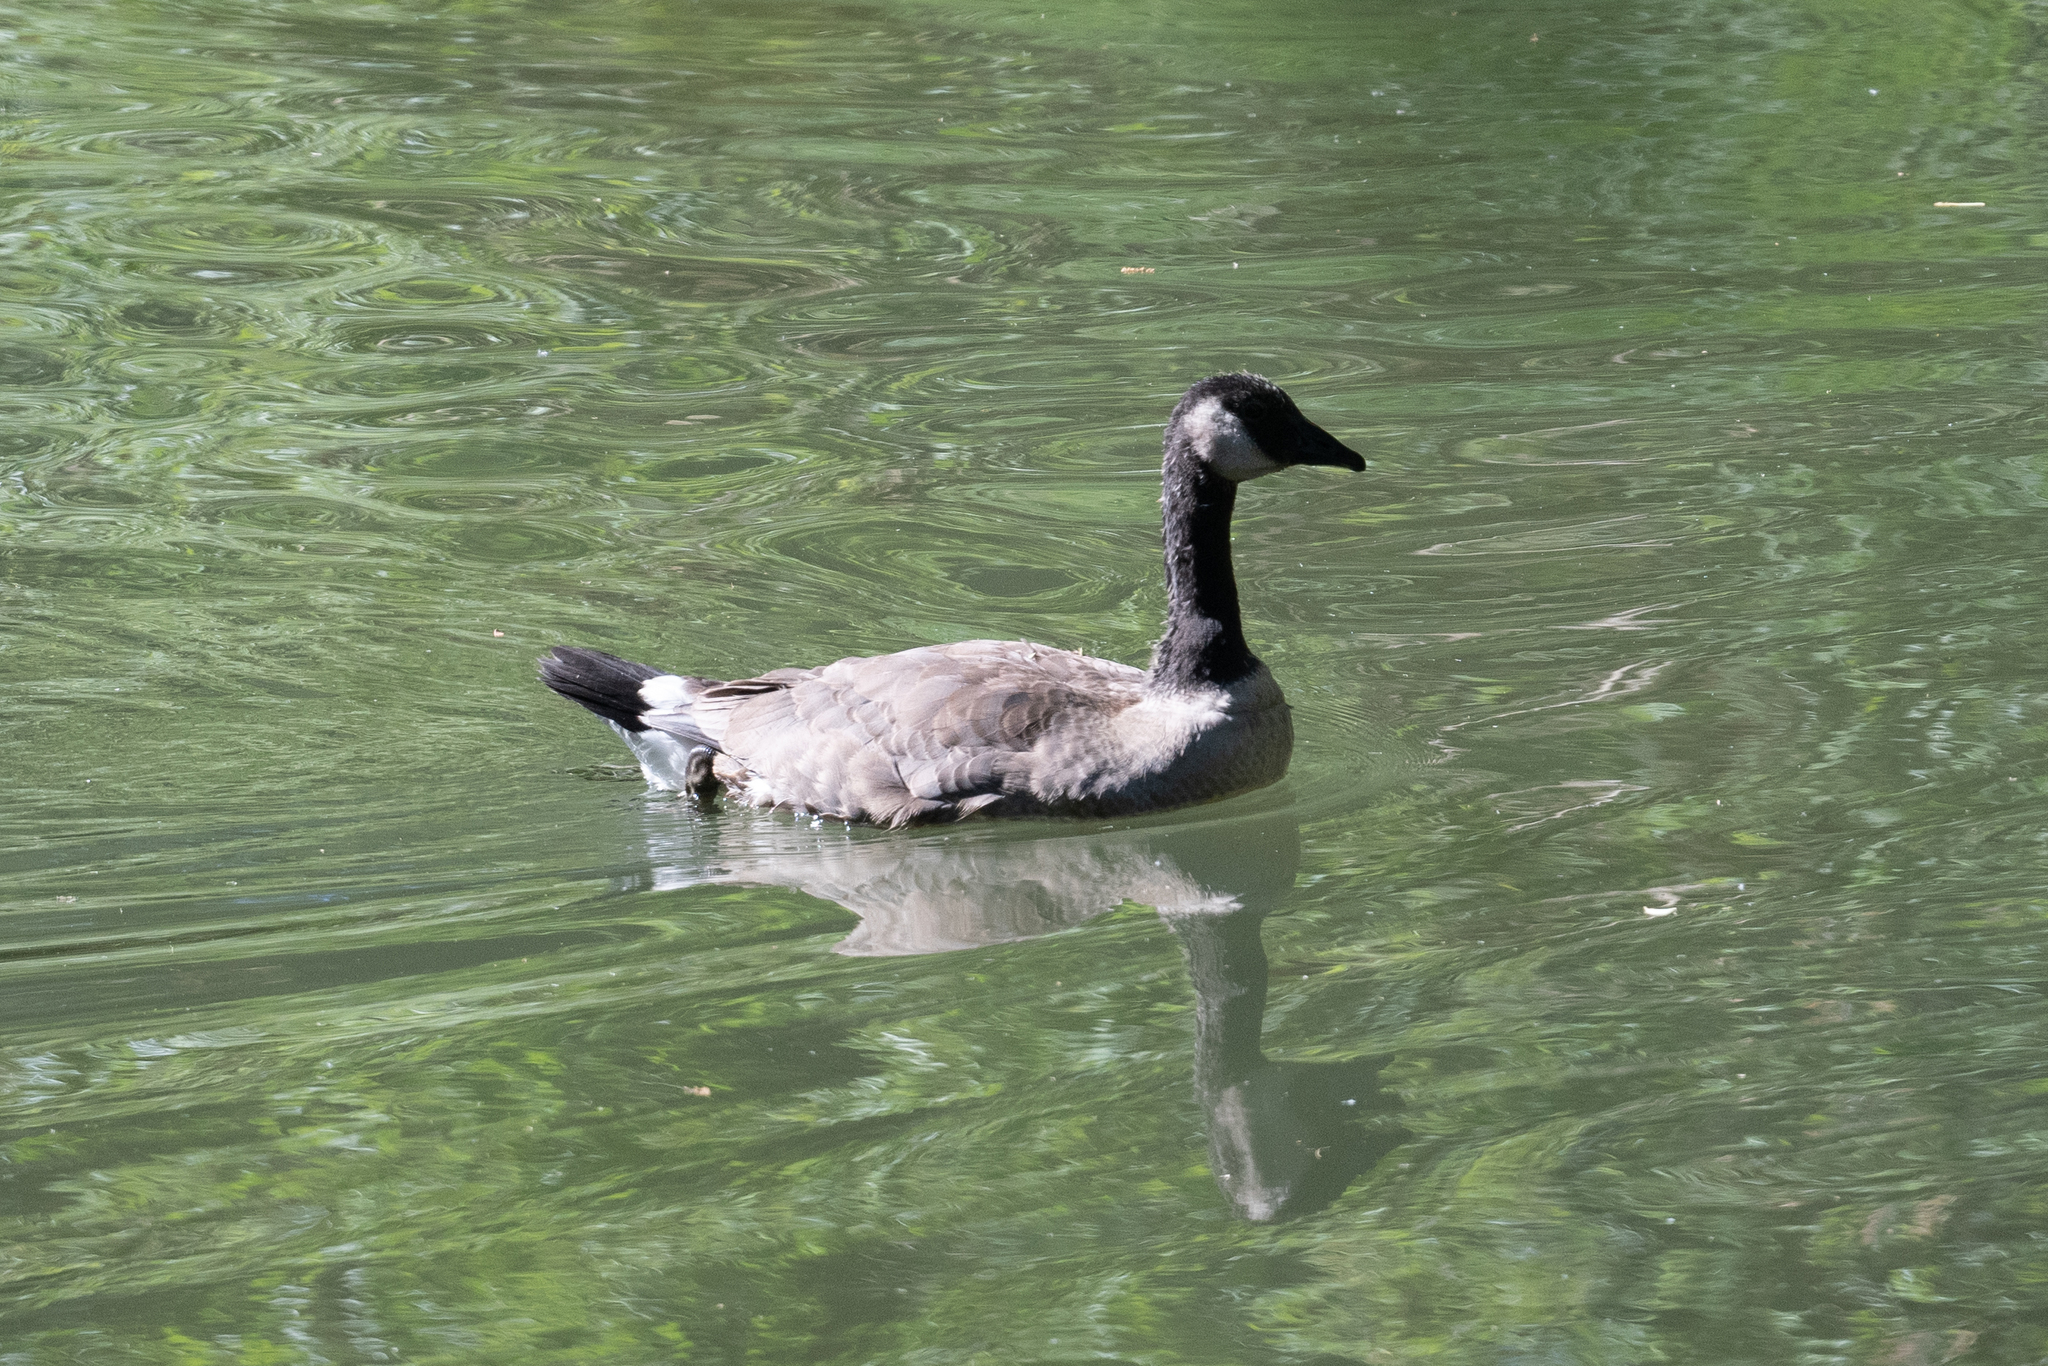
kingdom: Animalia
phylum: Chordata
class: Aves
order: Anseriformes
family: Anatidae
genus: Branta
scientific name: Branta canadensis
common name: Canada goose
